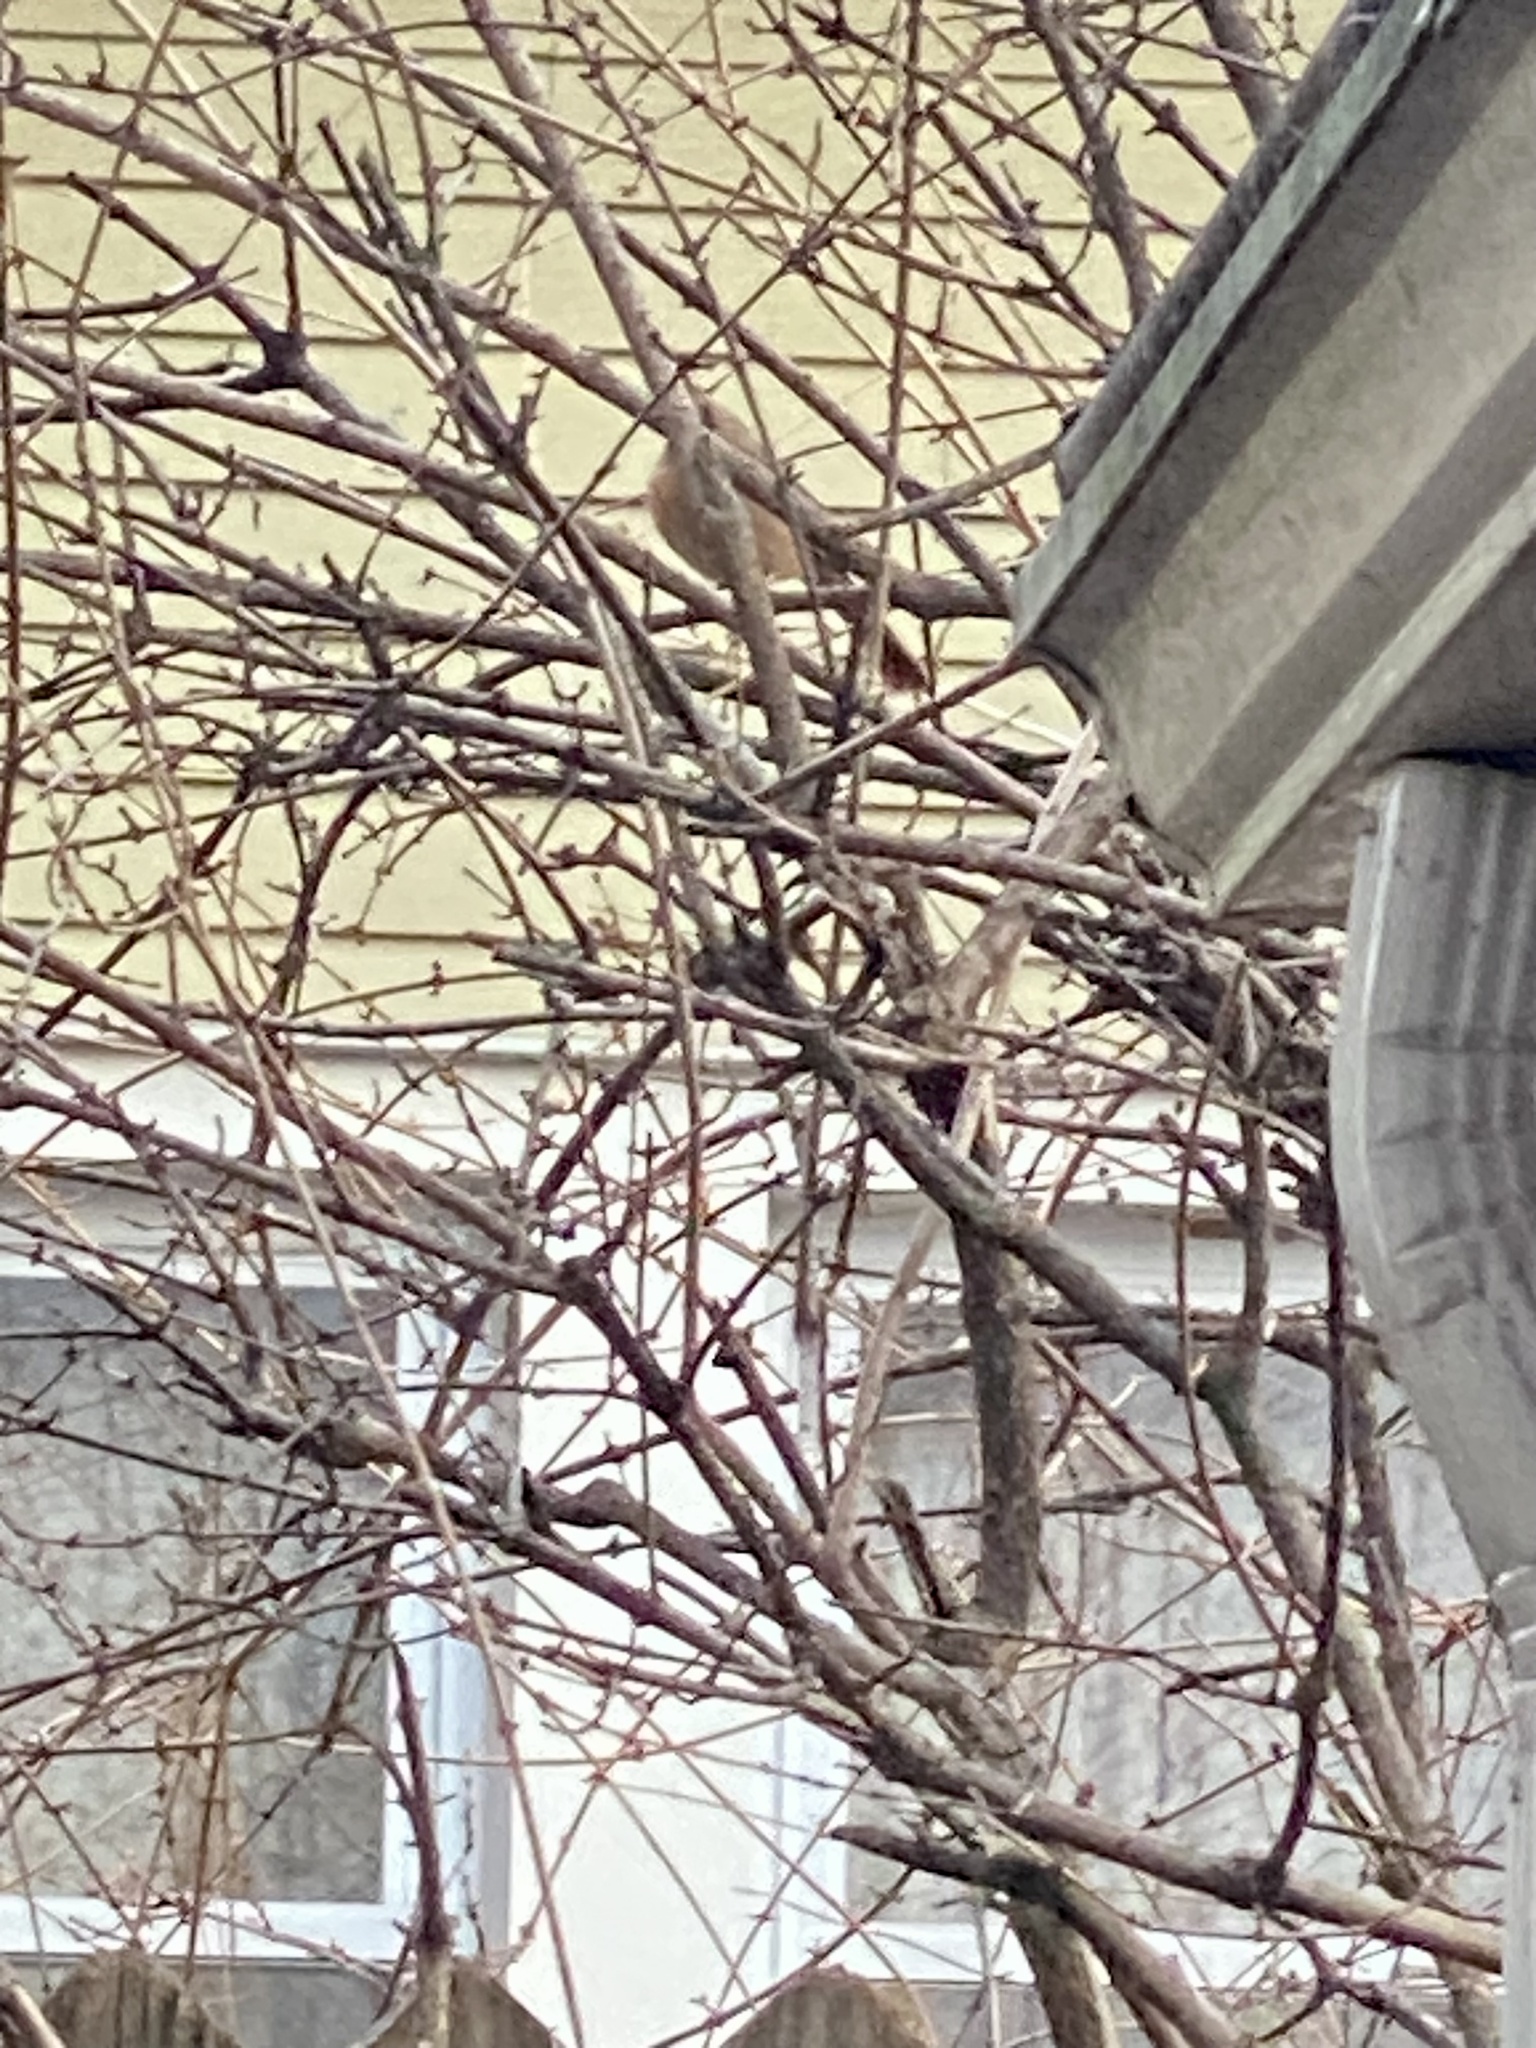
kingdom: Animalia
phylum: Chordata
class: Aves
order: Passeriformes
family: Cardinalidae
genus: Cardinalis
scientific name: Cardinalis cardinalis
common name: Northern cardinal
